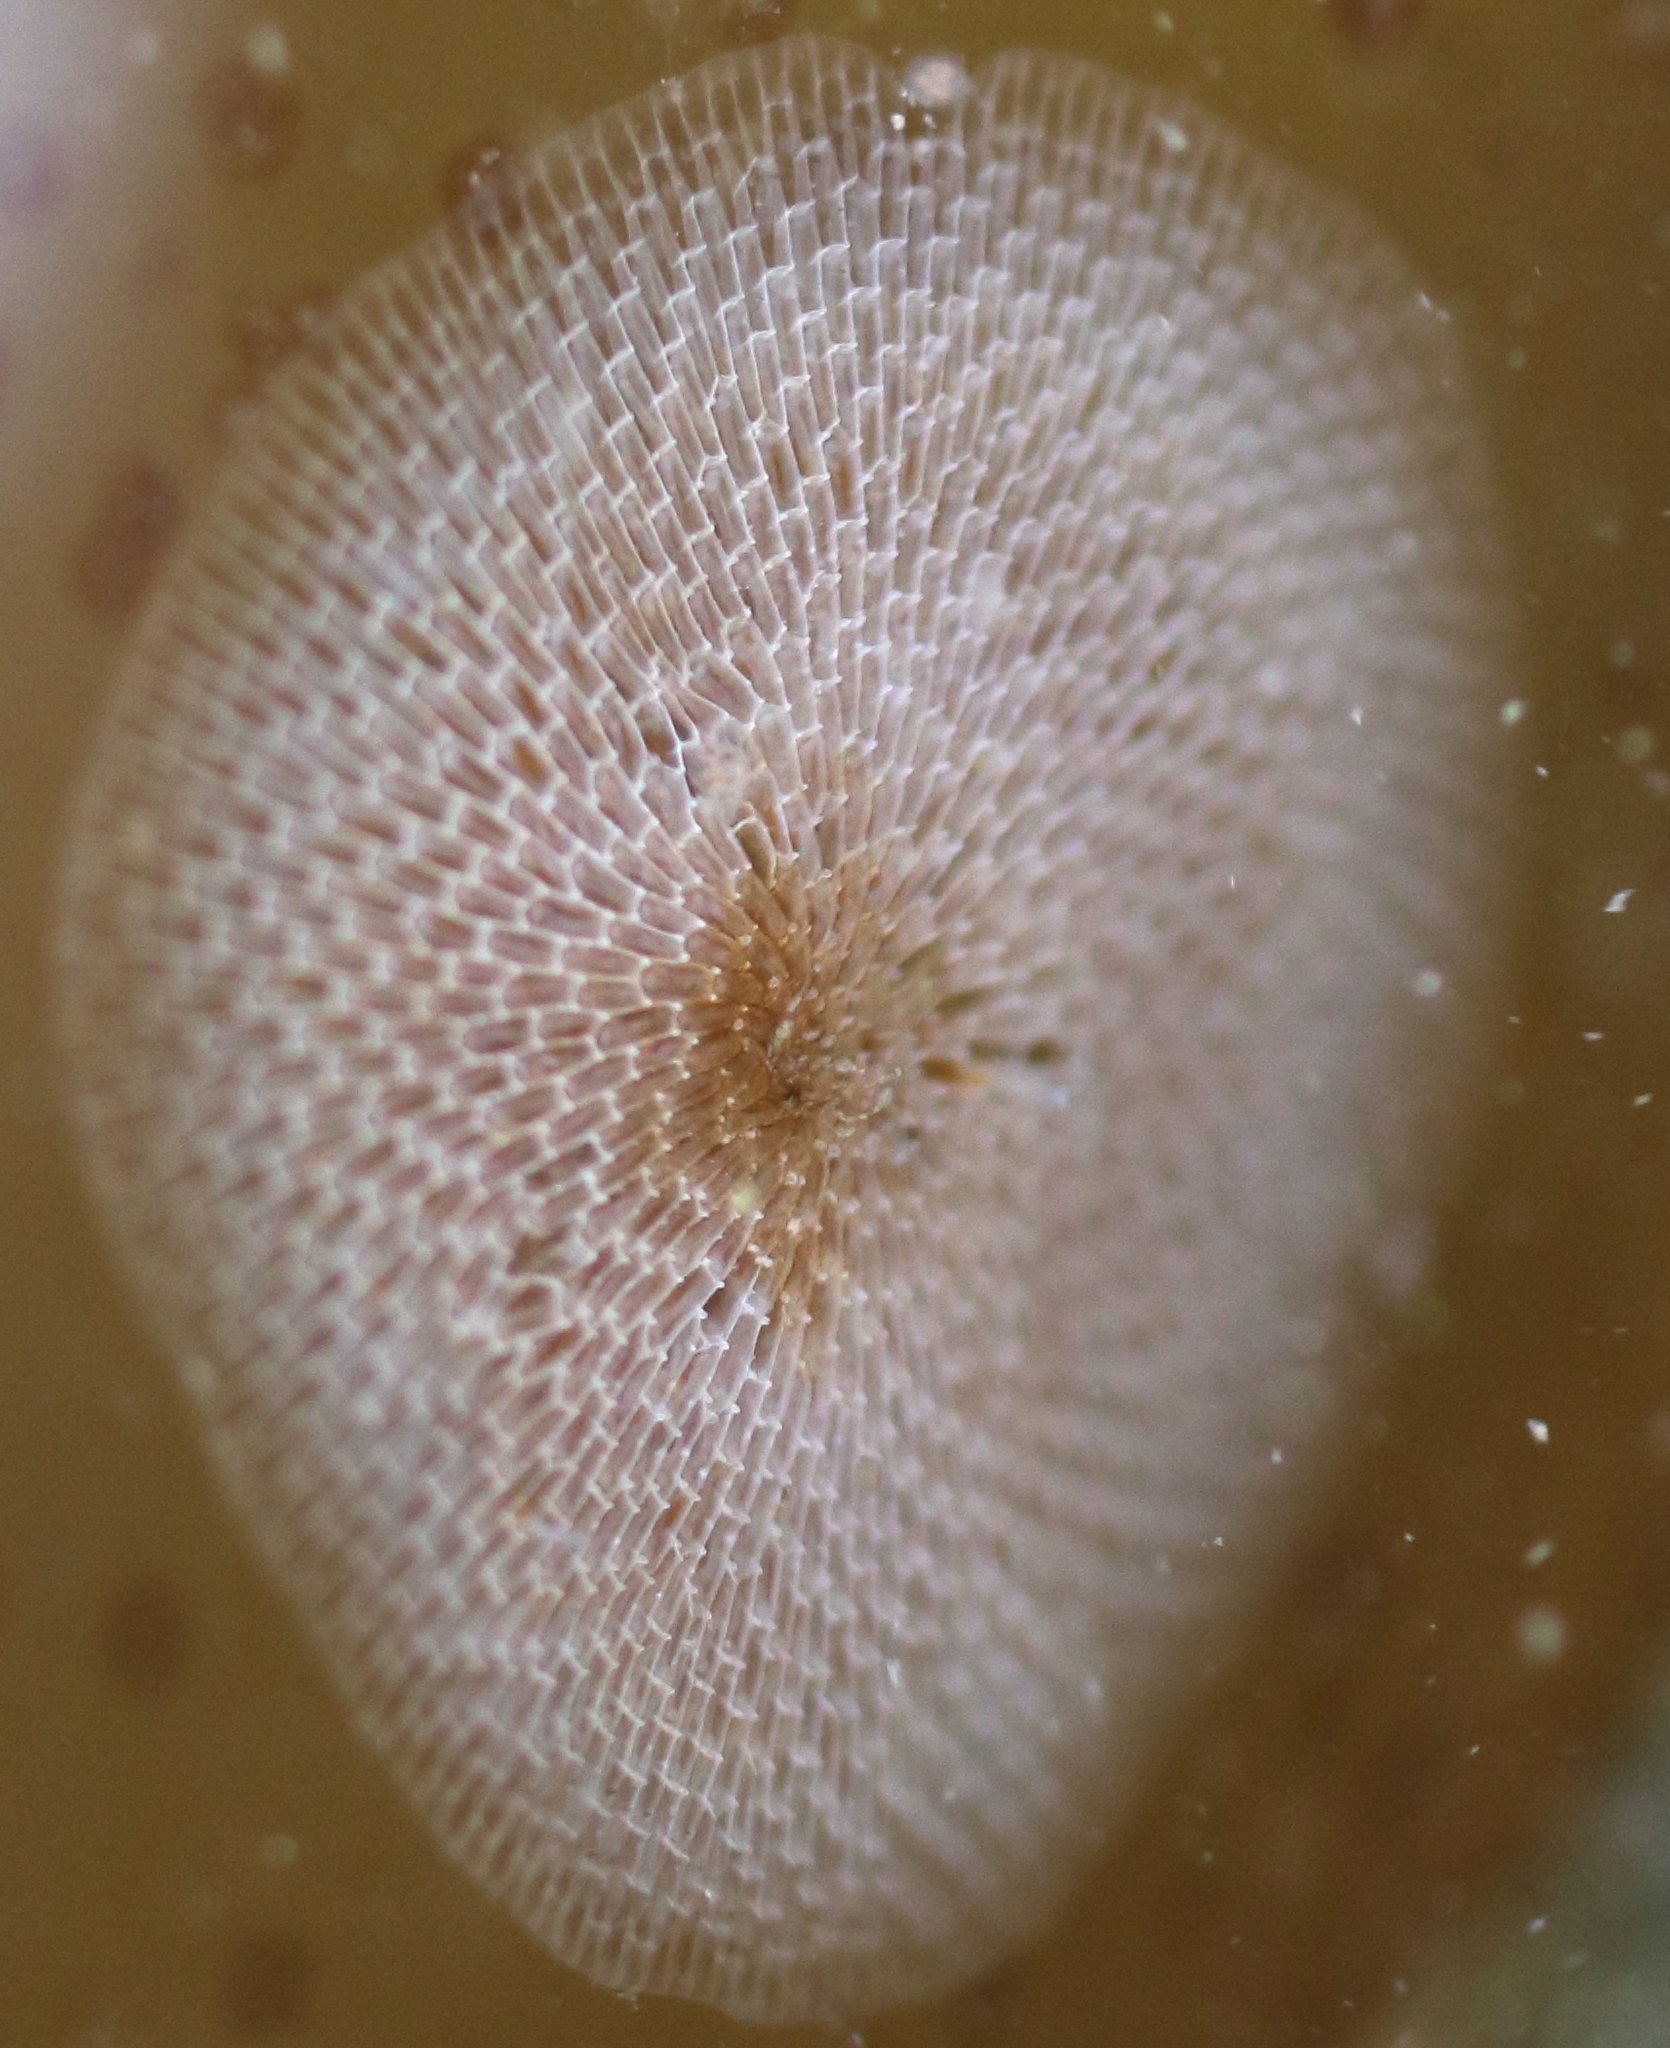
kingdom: Animalia
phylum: Bryozoa
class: Gymnolaemata
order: Cheilostomatida
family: Membraniporidae
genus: Membranipora
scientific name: Membranipora villosa
